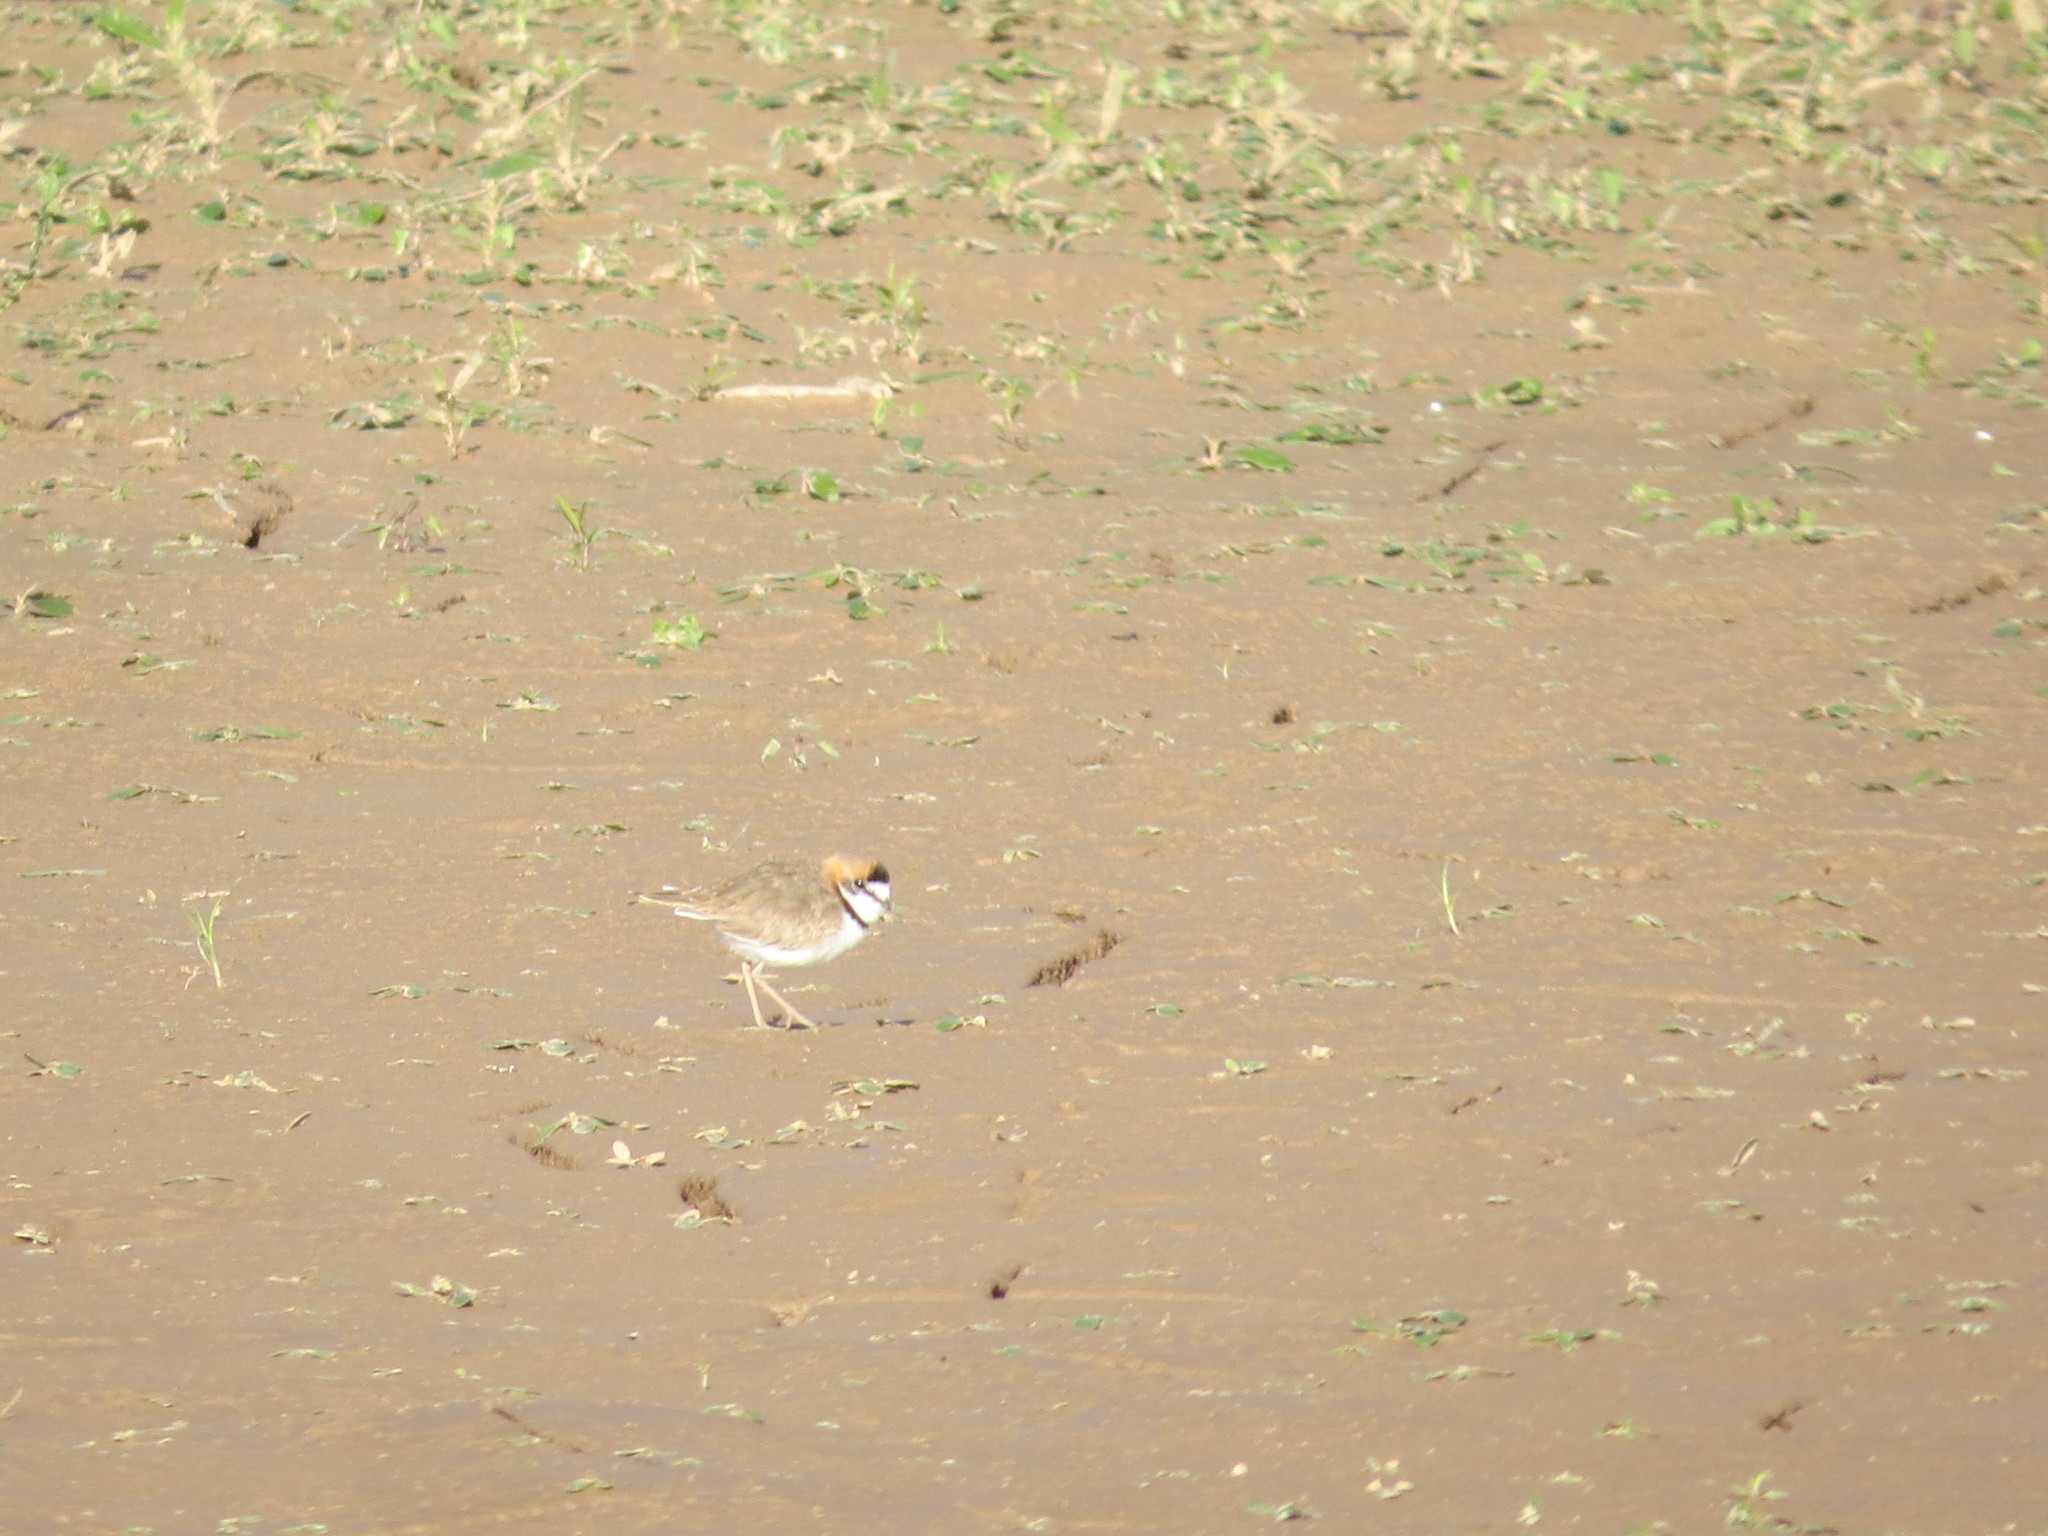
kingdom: Animalia
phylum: Chordata
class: Aves
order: Charadriiformes
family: Charadriidae
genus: Anarhynchus
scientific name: Anarhynchus
